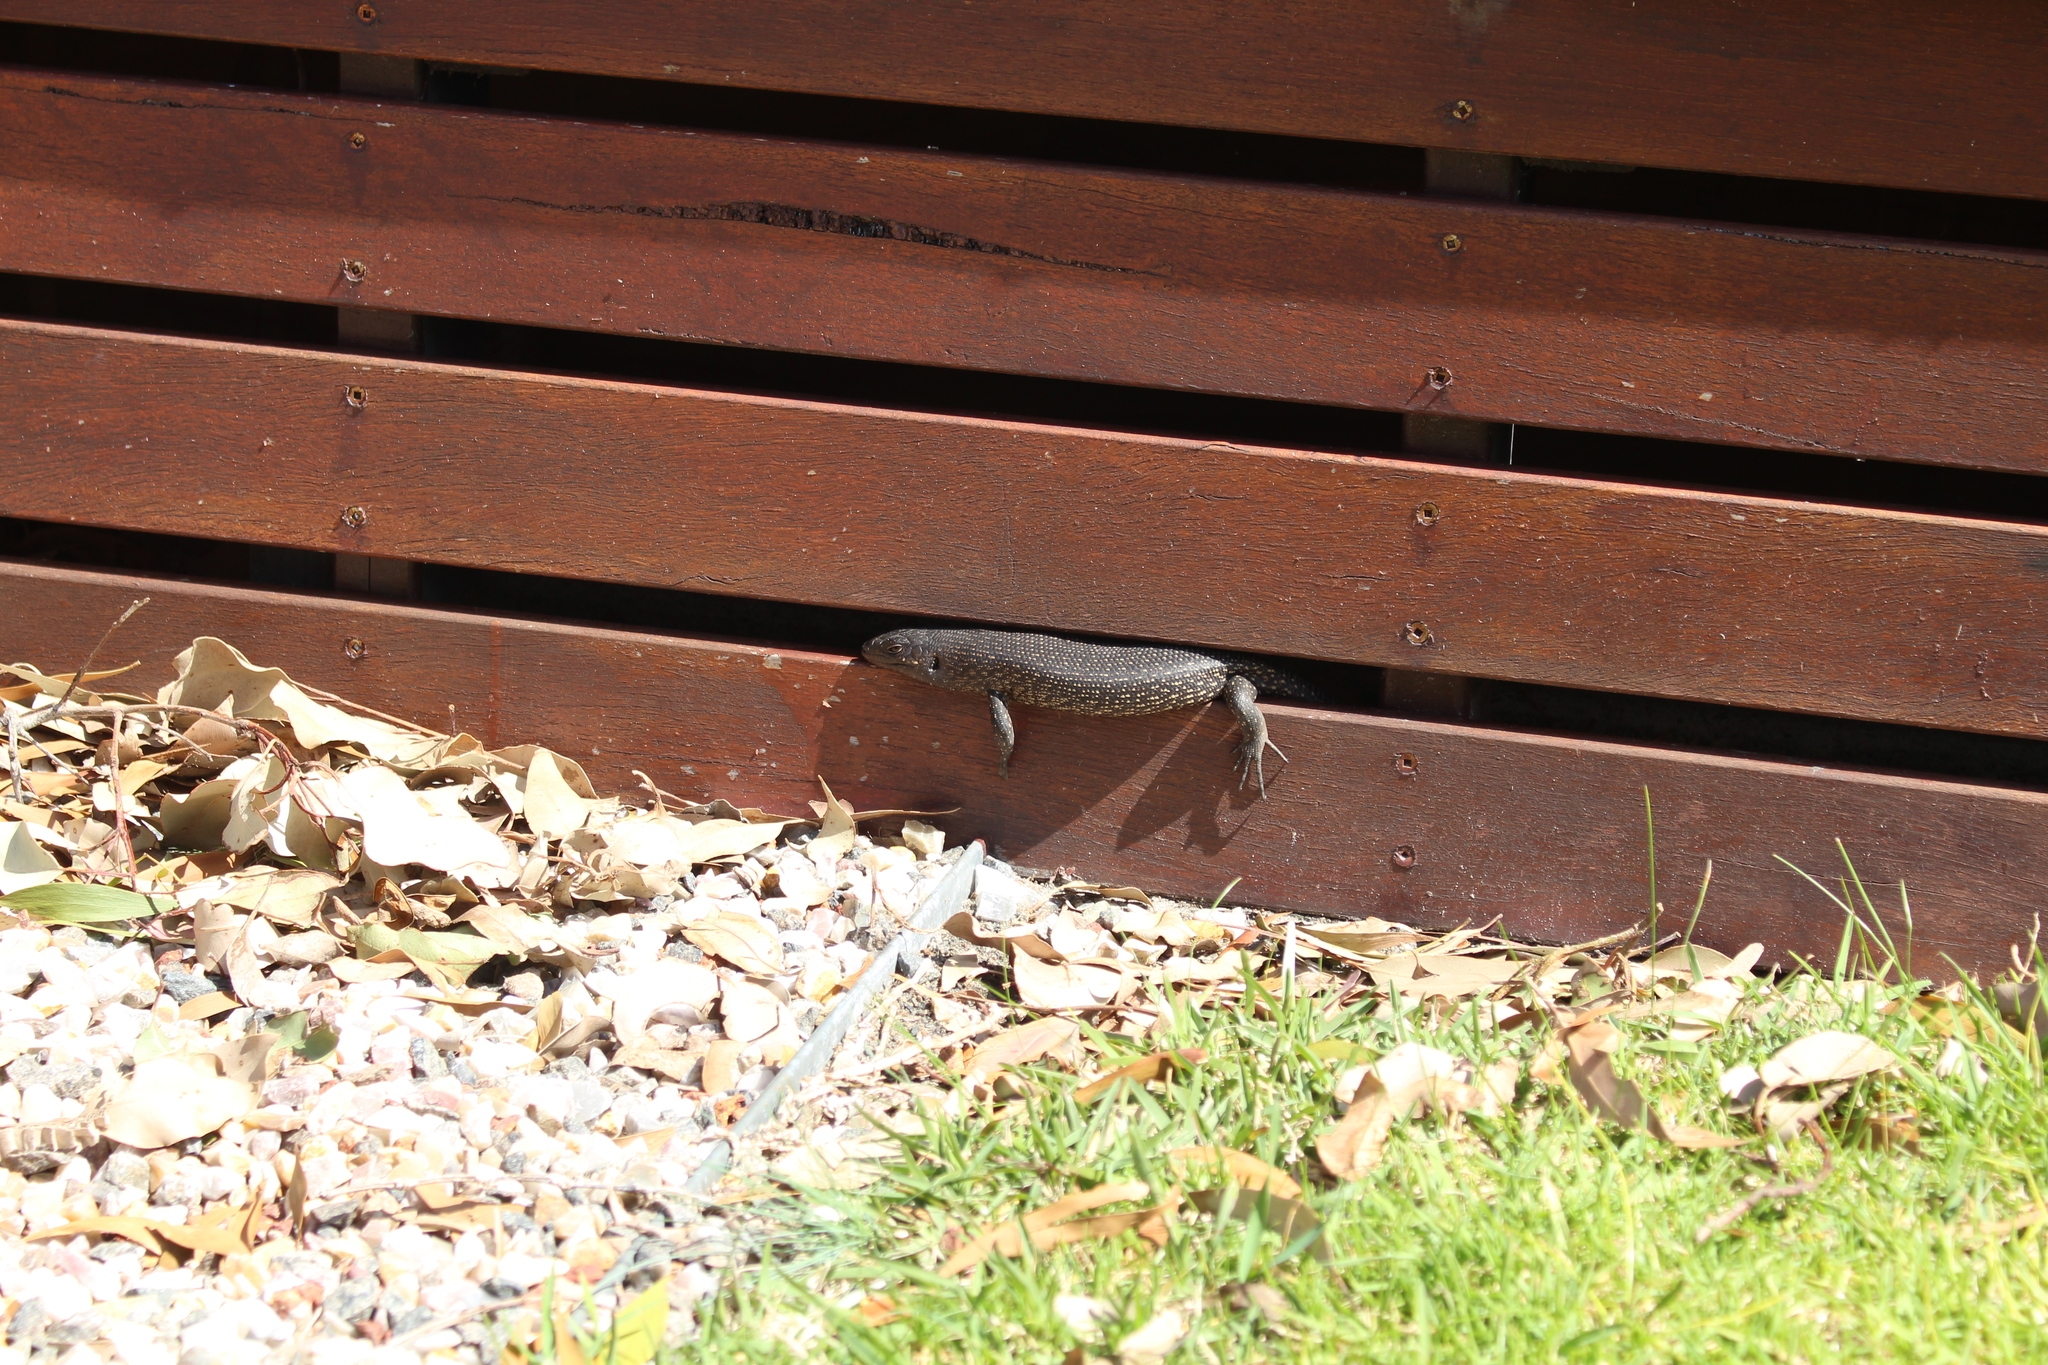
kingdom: Animalia
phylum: Chordata
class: Squamata
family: Scincidae
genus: Egernia
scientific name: Egernia kingii
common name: King's skink
